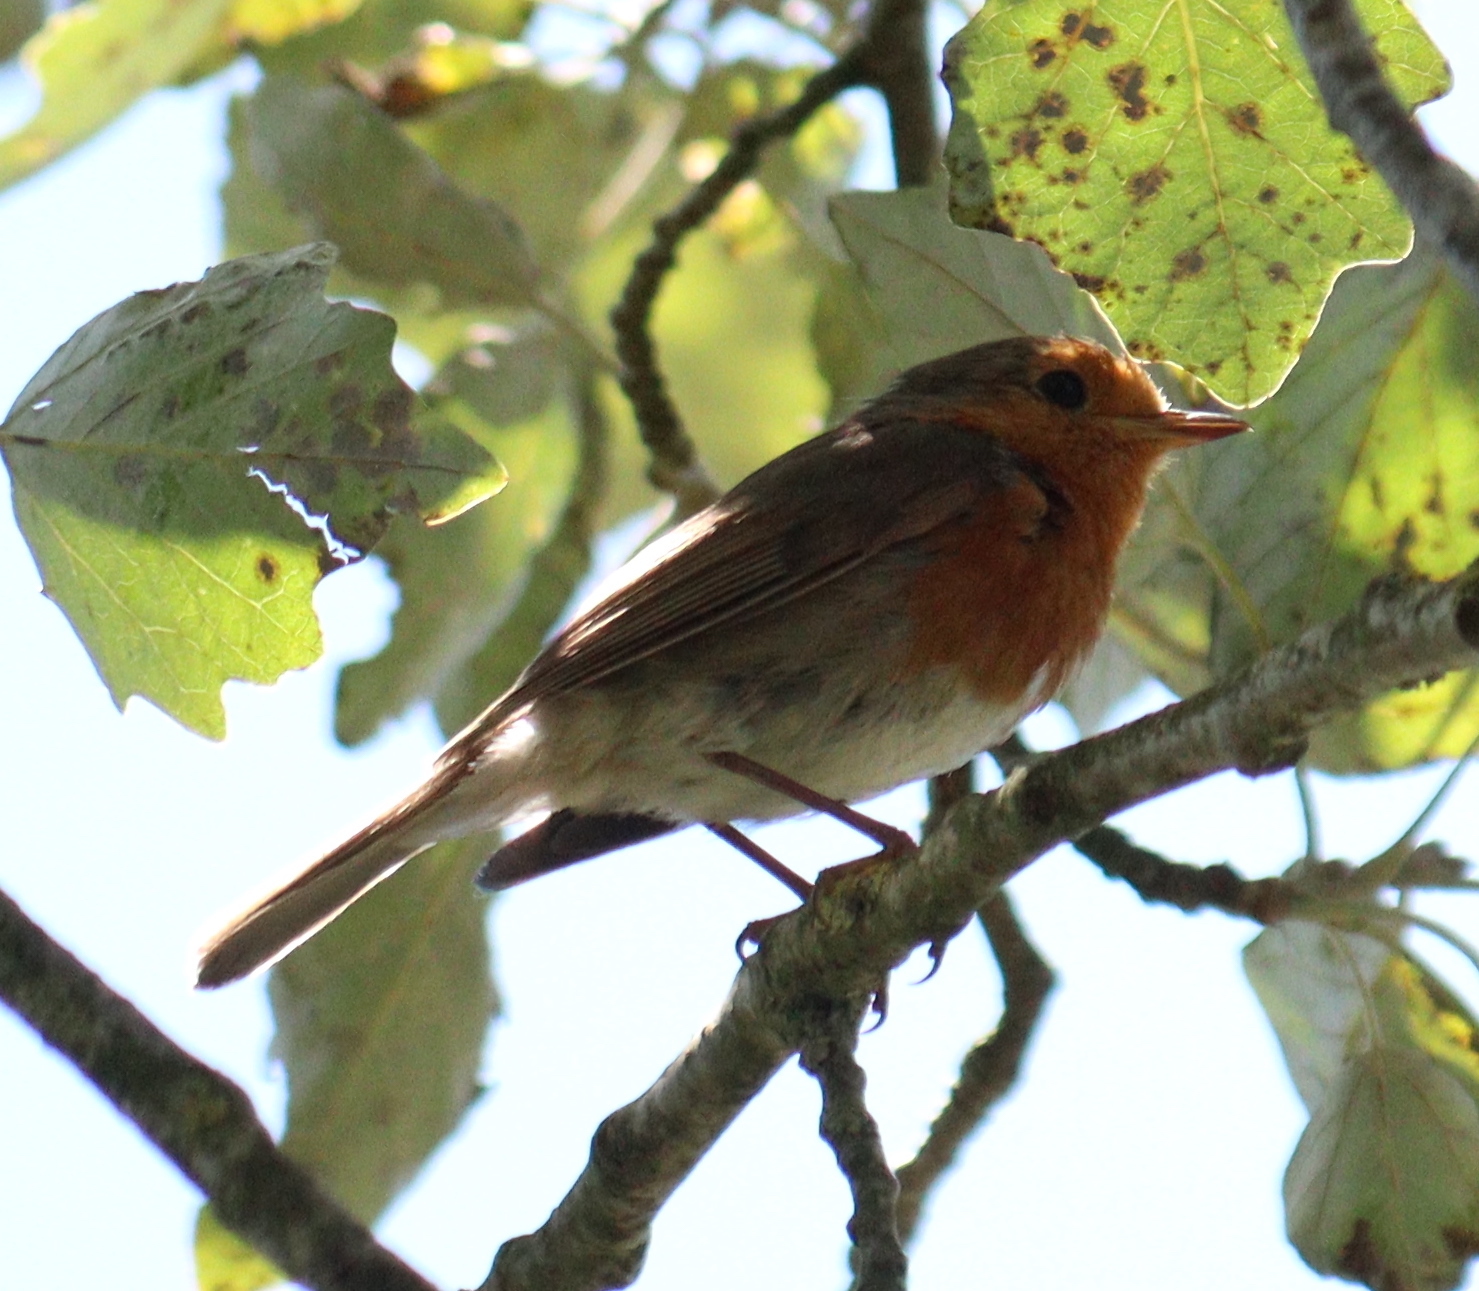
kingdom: Animalia
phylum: Chordata
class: Aves
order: Passeriformes
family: Muscicapidae
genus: Erithacus
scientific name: Erithacus rubecula
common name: European robin
